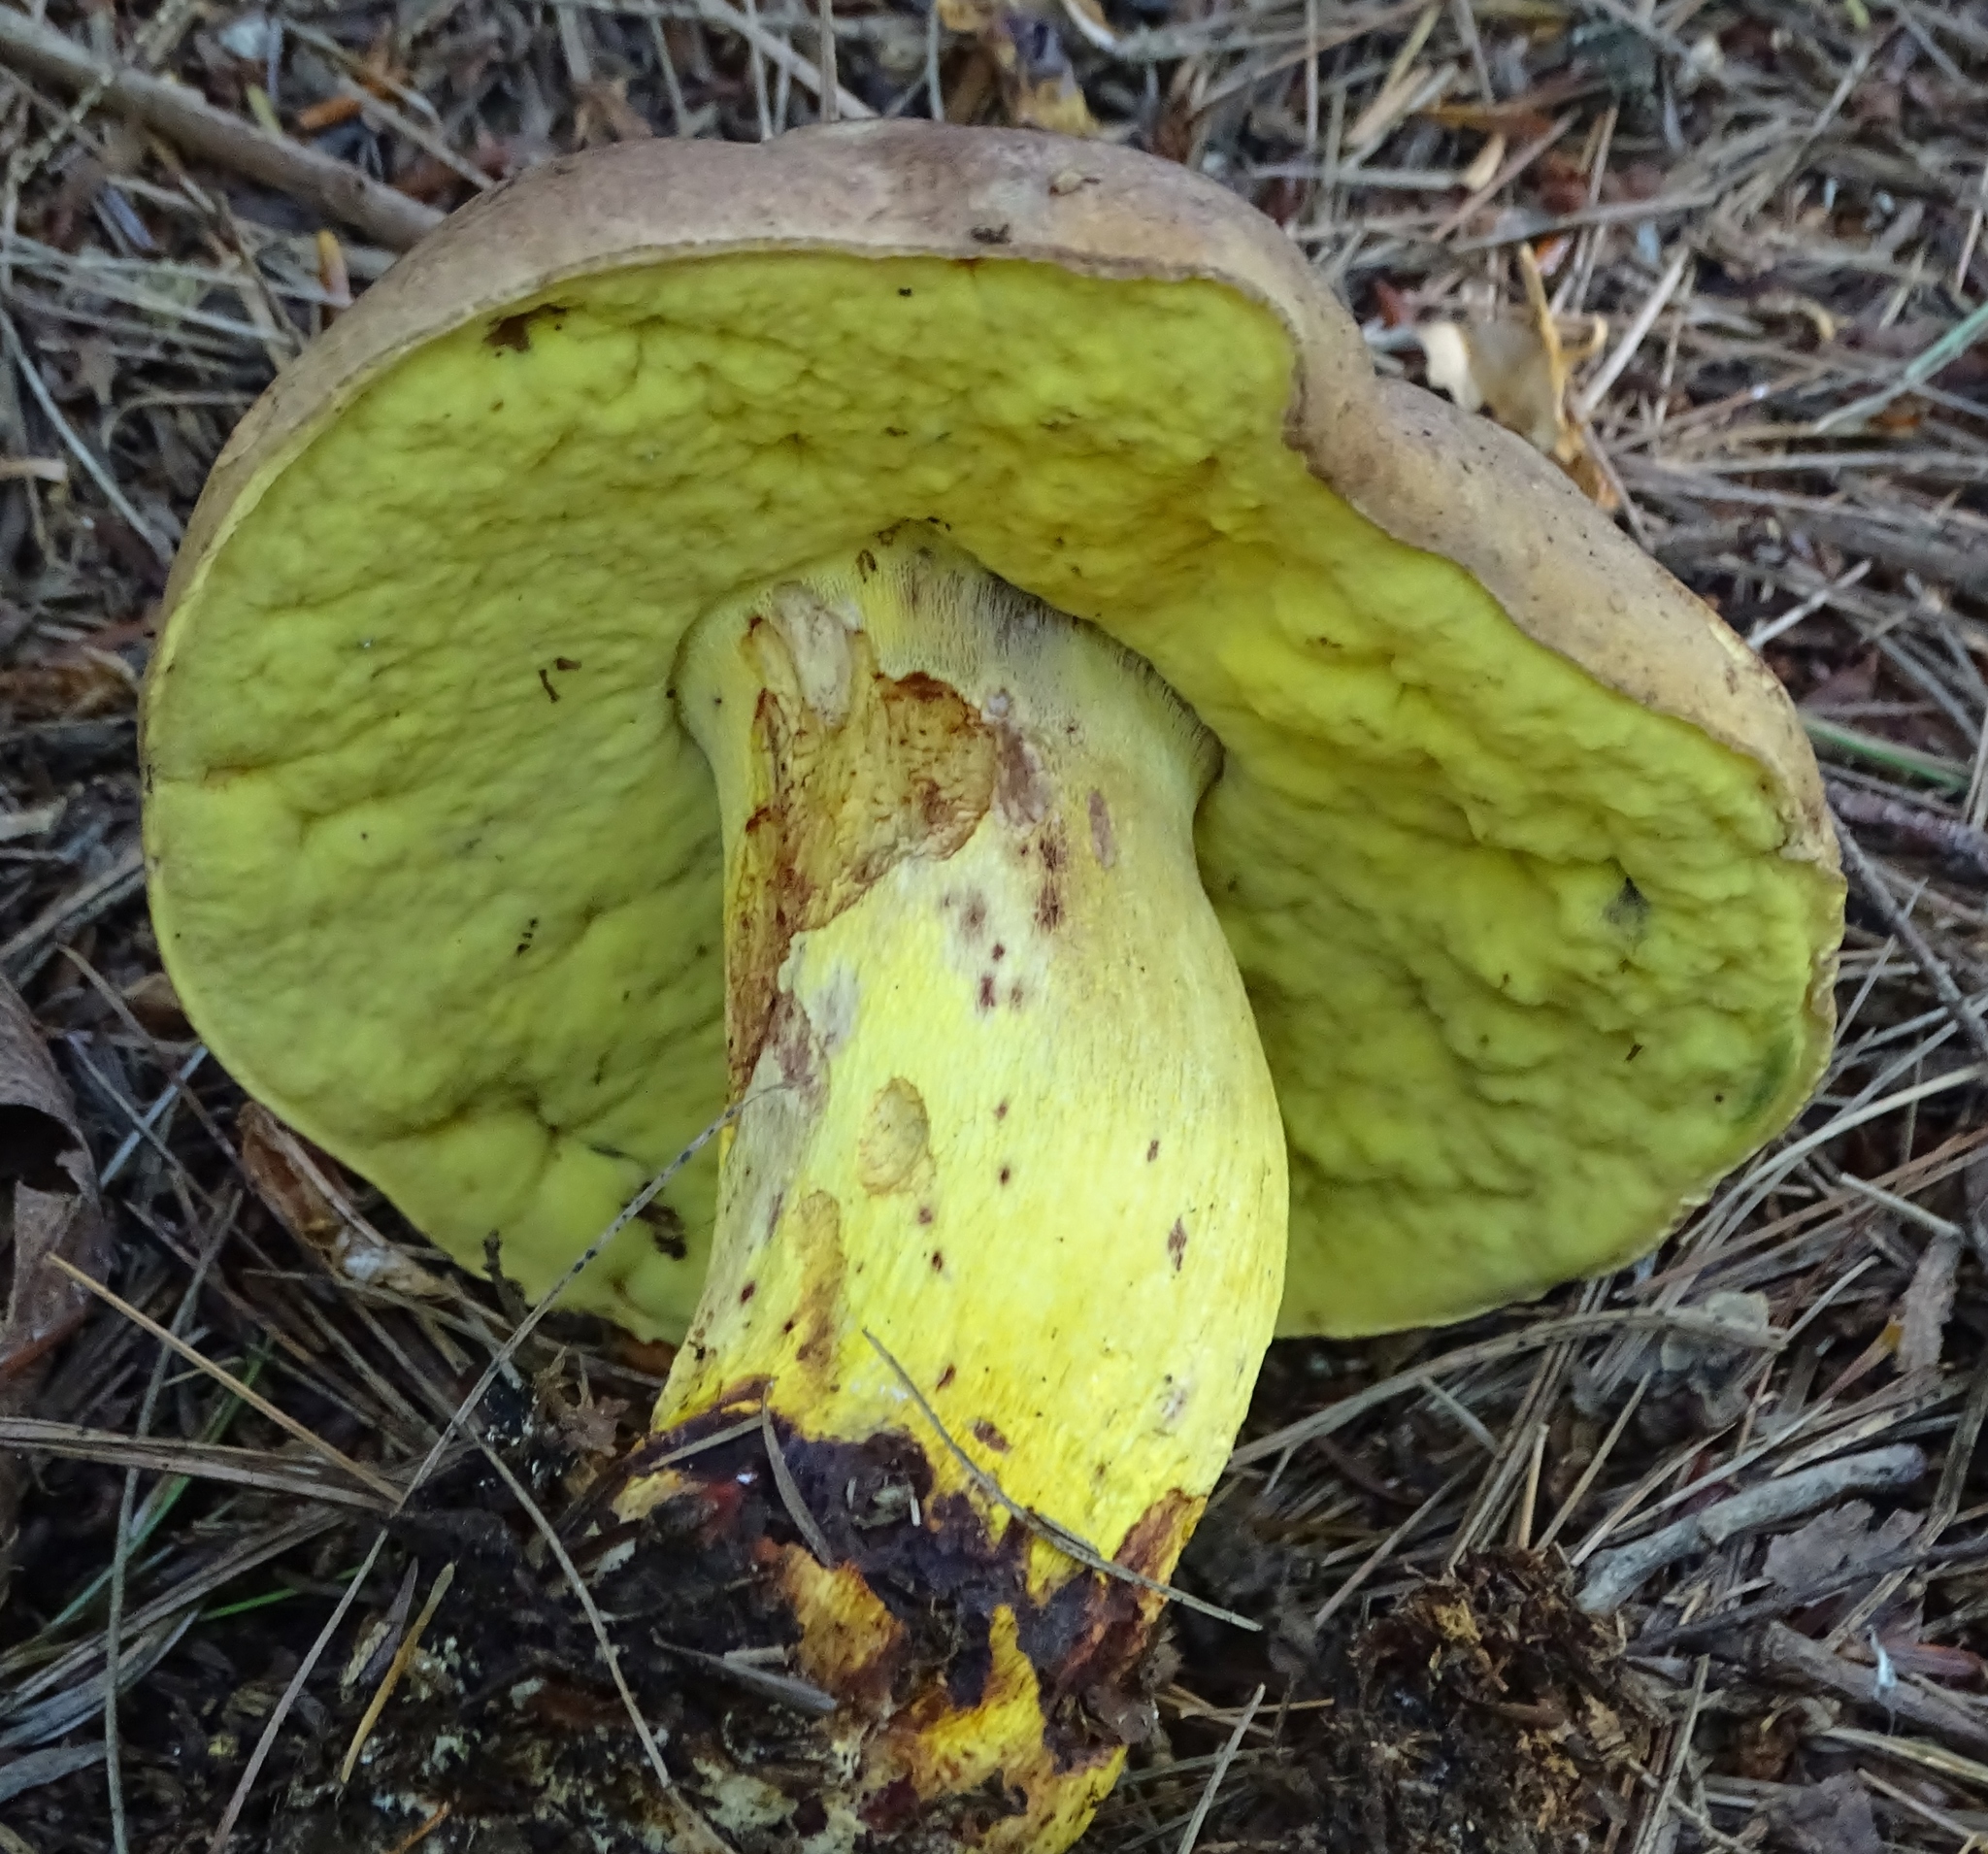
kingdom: Fungi
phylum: Basidiomycota
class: Agaricomycetes
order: Boletales
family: Boletaceae
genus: Boletus
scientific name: Boletus auripes
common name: Butter-foot bolete
